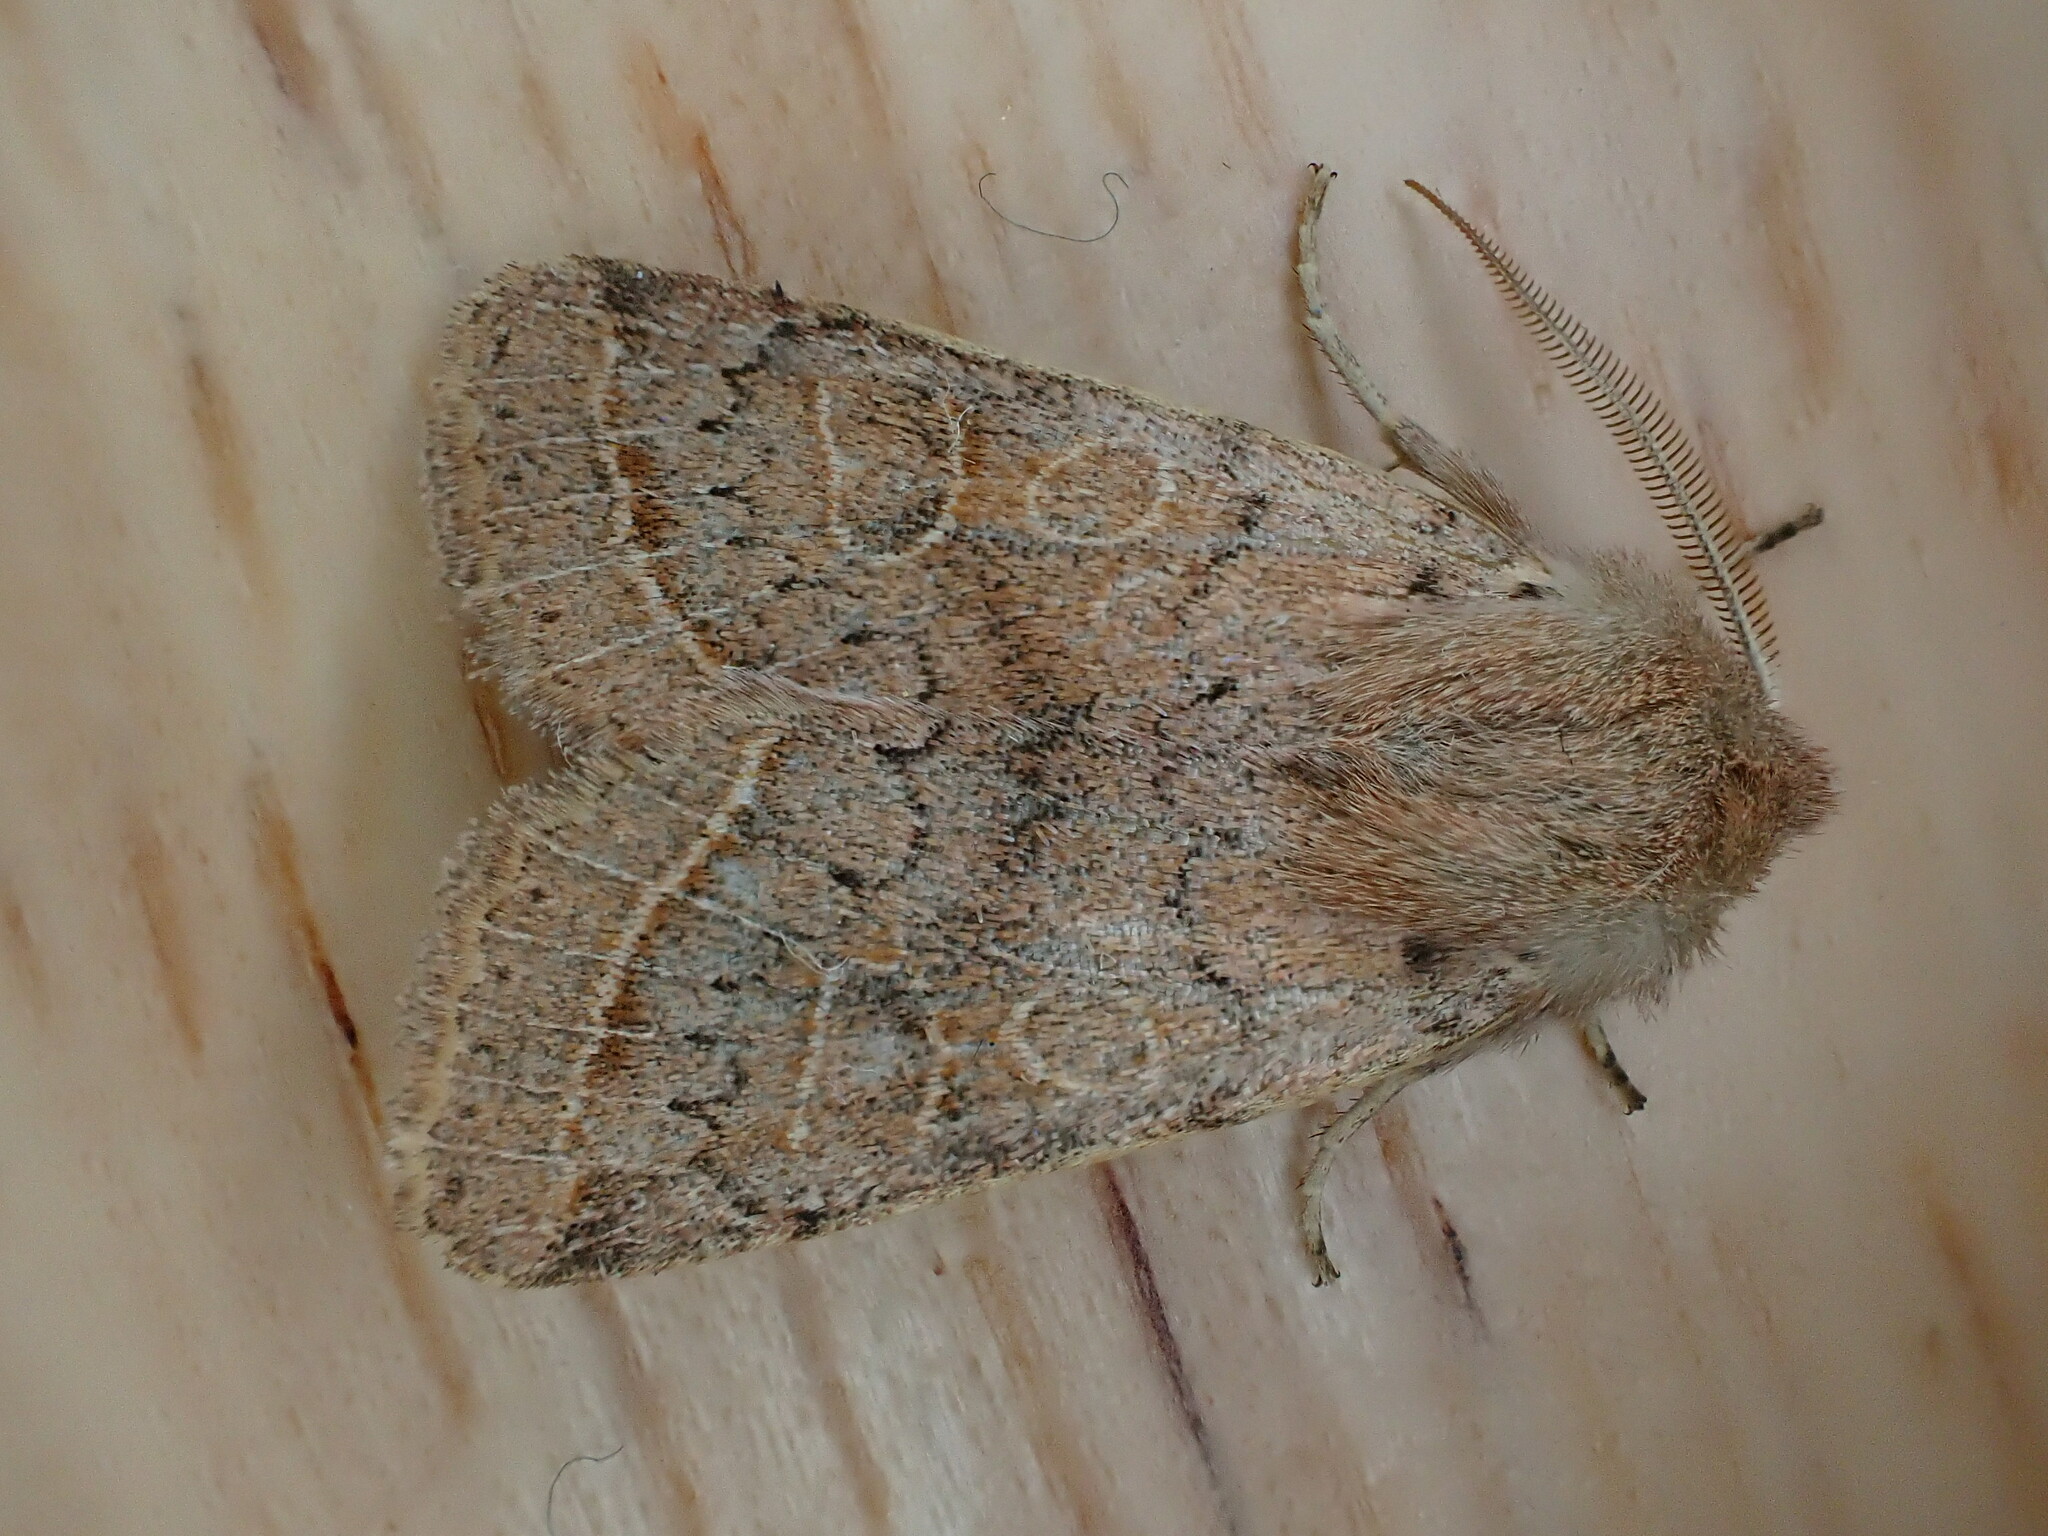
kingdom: Animalia
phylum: Arthropoda
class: Insecta
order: Lepidoptera
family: Noctuidae
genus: Orthosia
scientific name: Orthosia cerasi
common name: Common quaker
